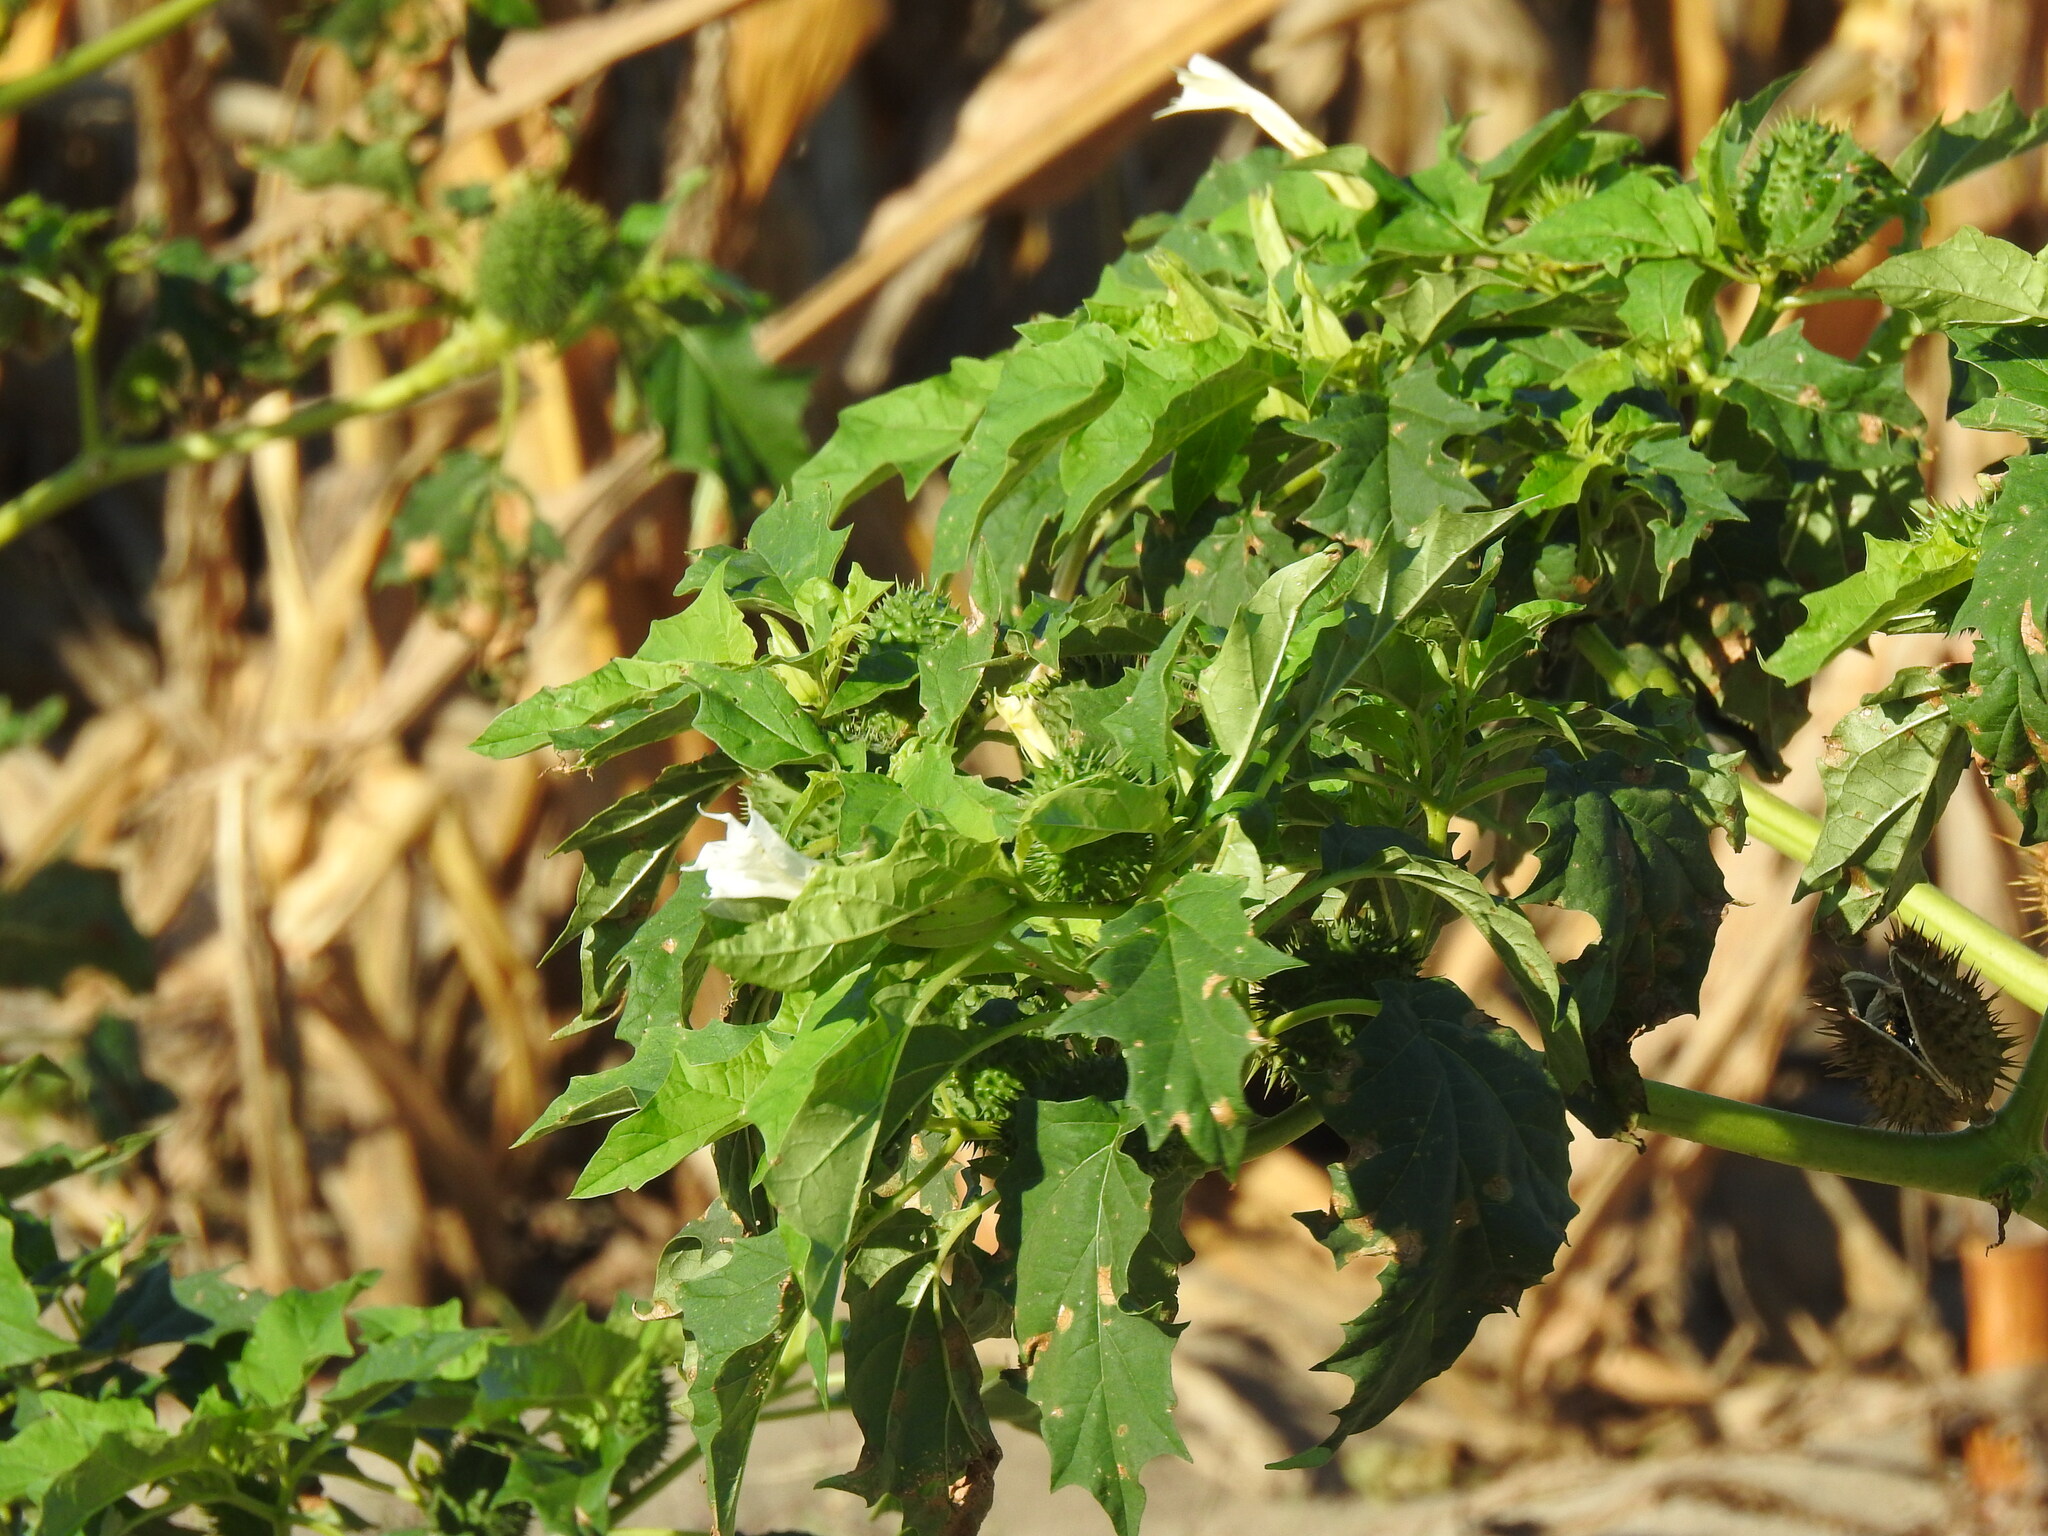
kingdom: Plantae
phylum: Tracheophyta
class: Magnoliopsida
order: Solanales
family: Solanaceae
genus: Datura
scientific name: Datura stramonium
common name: Thorn-apple
